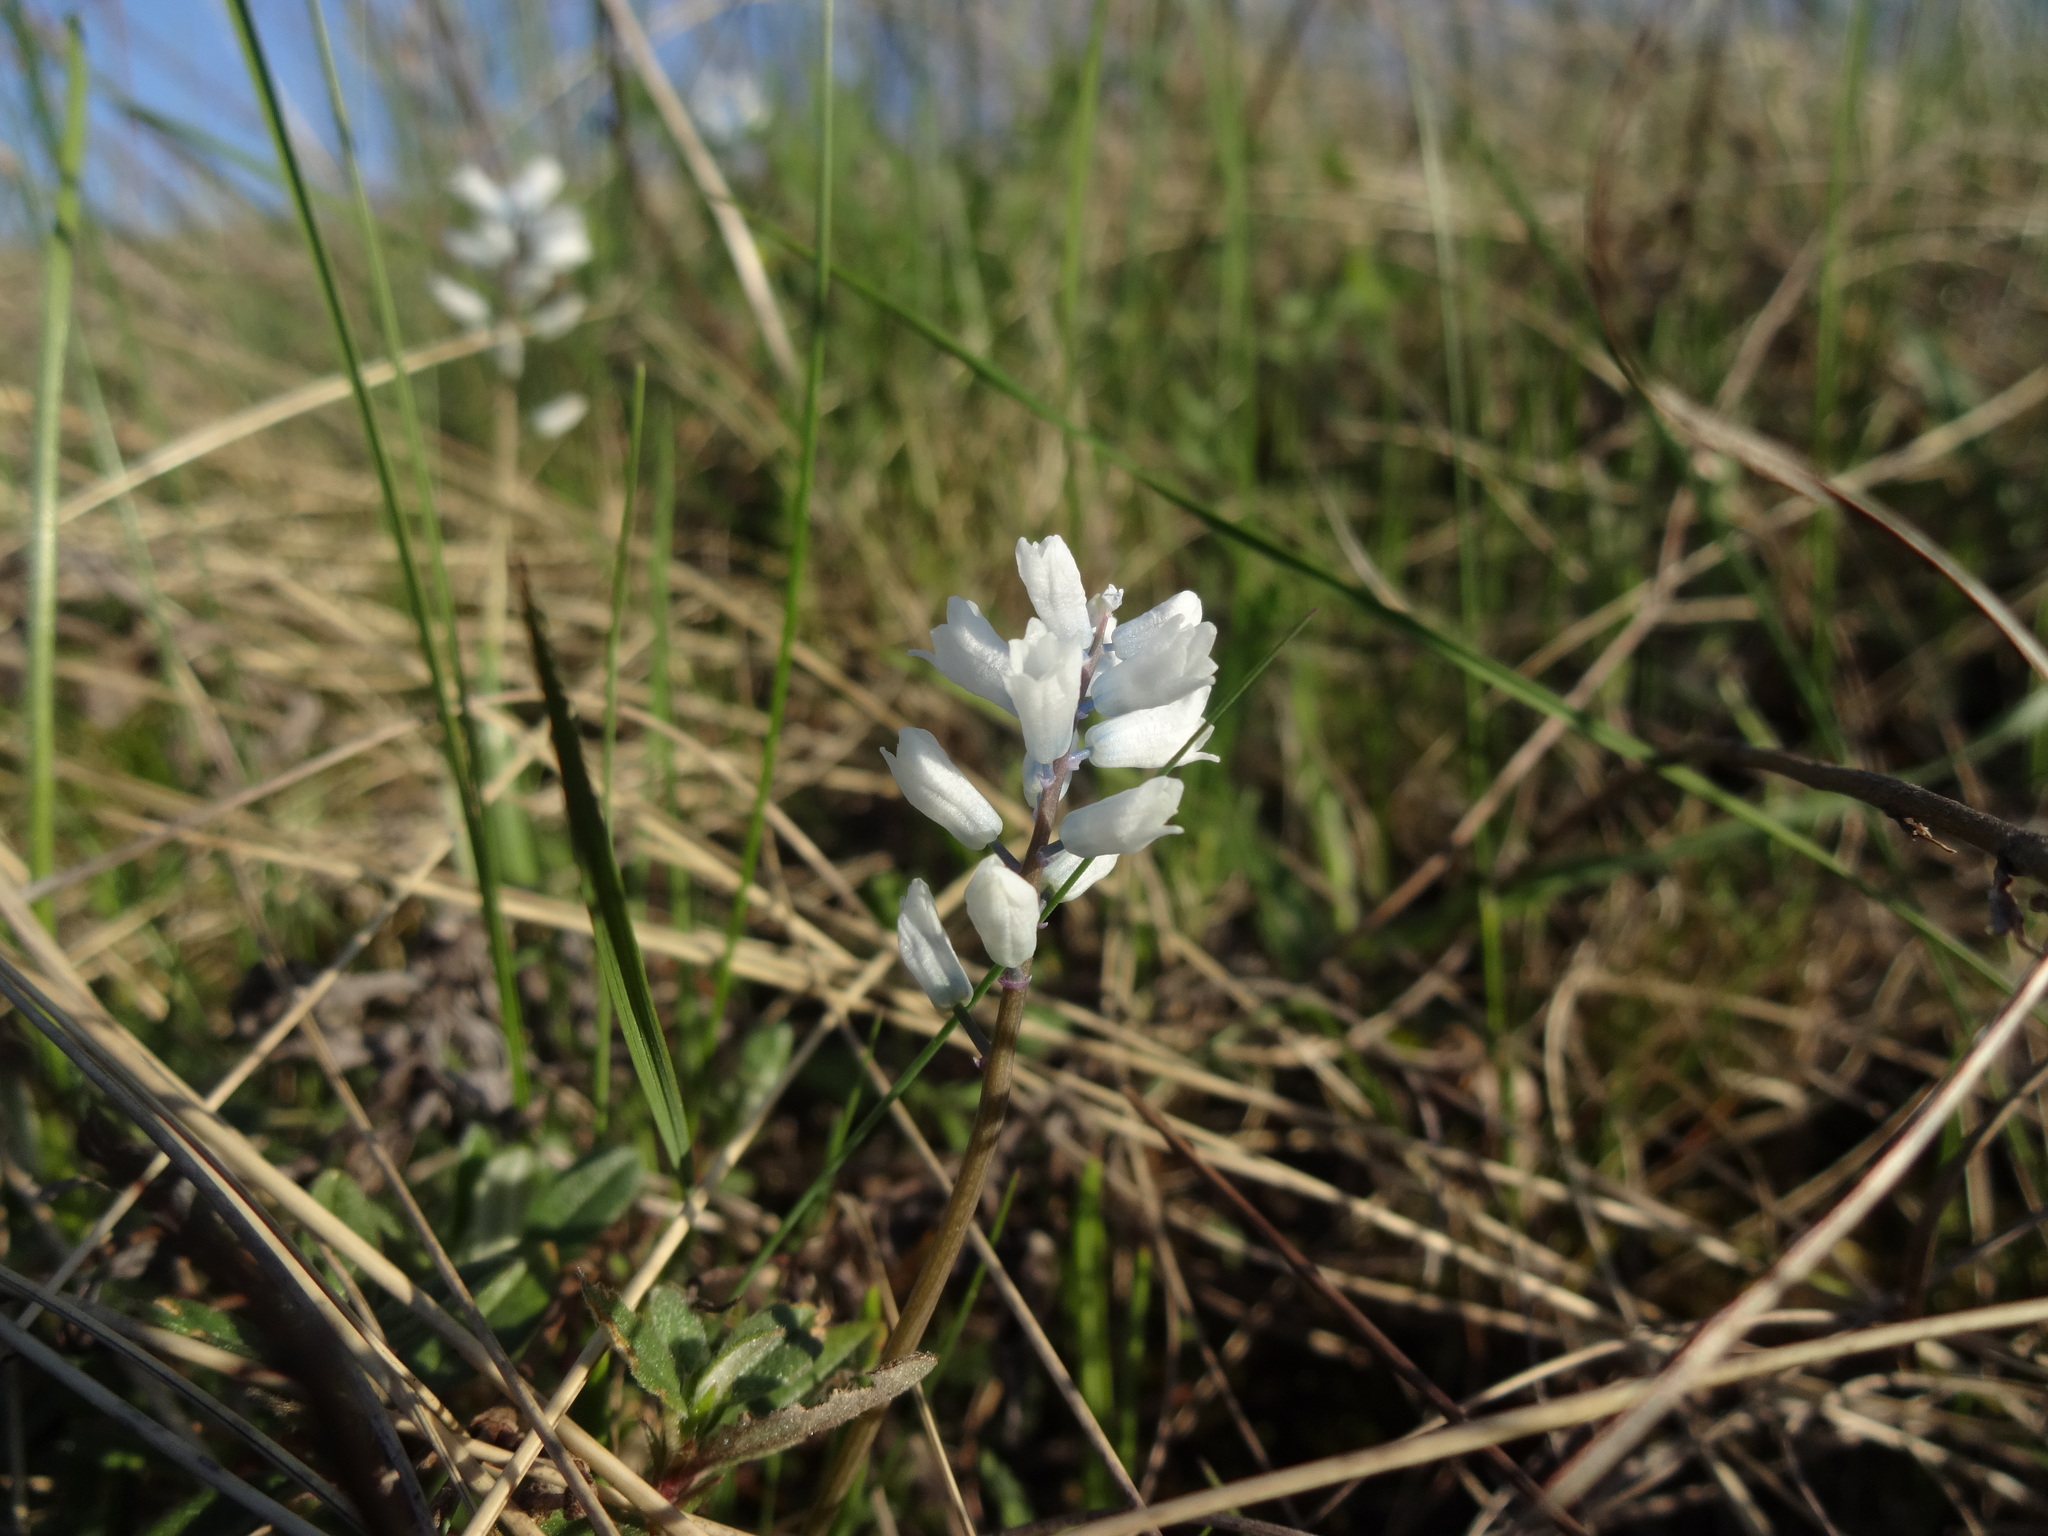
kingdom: Plantae
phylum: Tracheophyta
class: Liliopsida
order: Asparagales
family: Asparagaceae
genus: Hyacinthella
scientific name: Hyacinthella leucophaea
